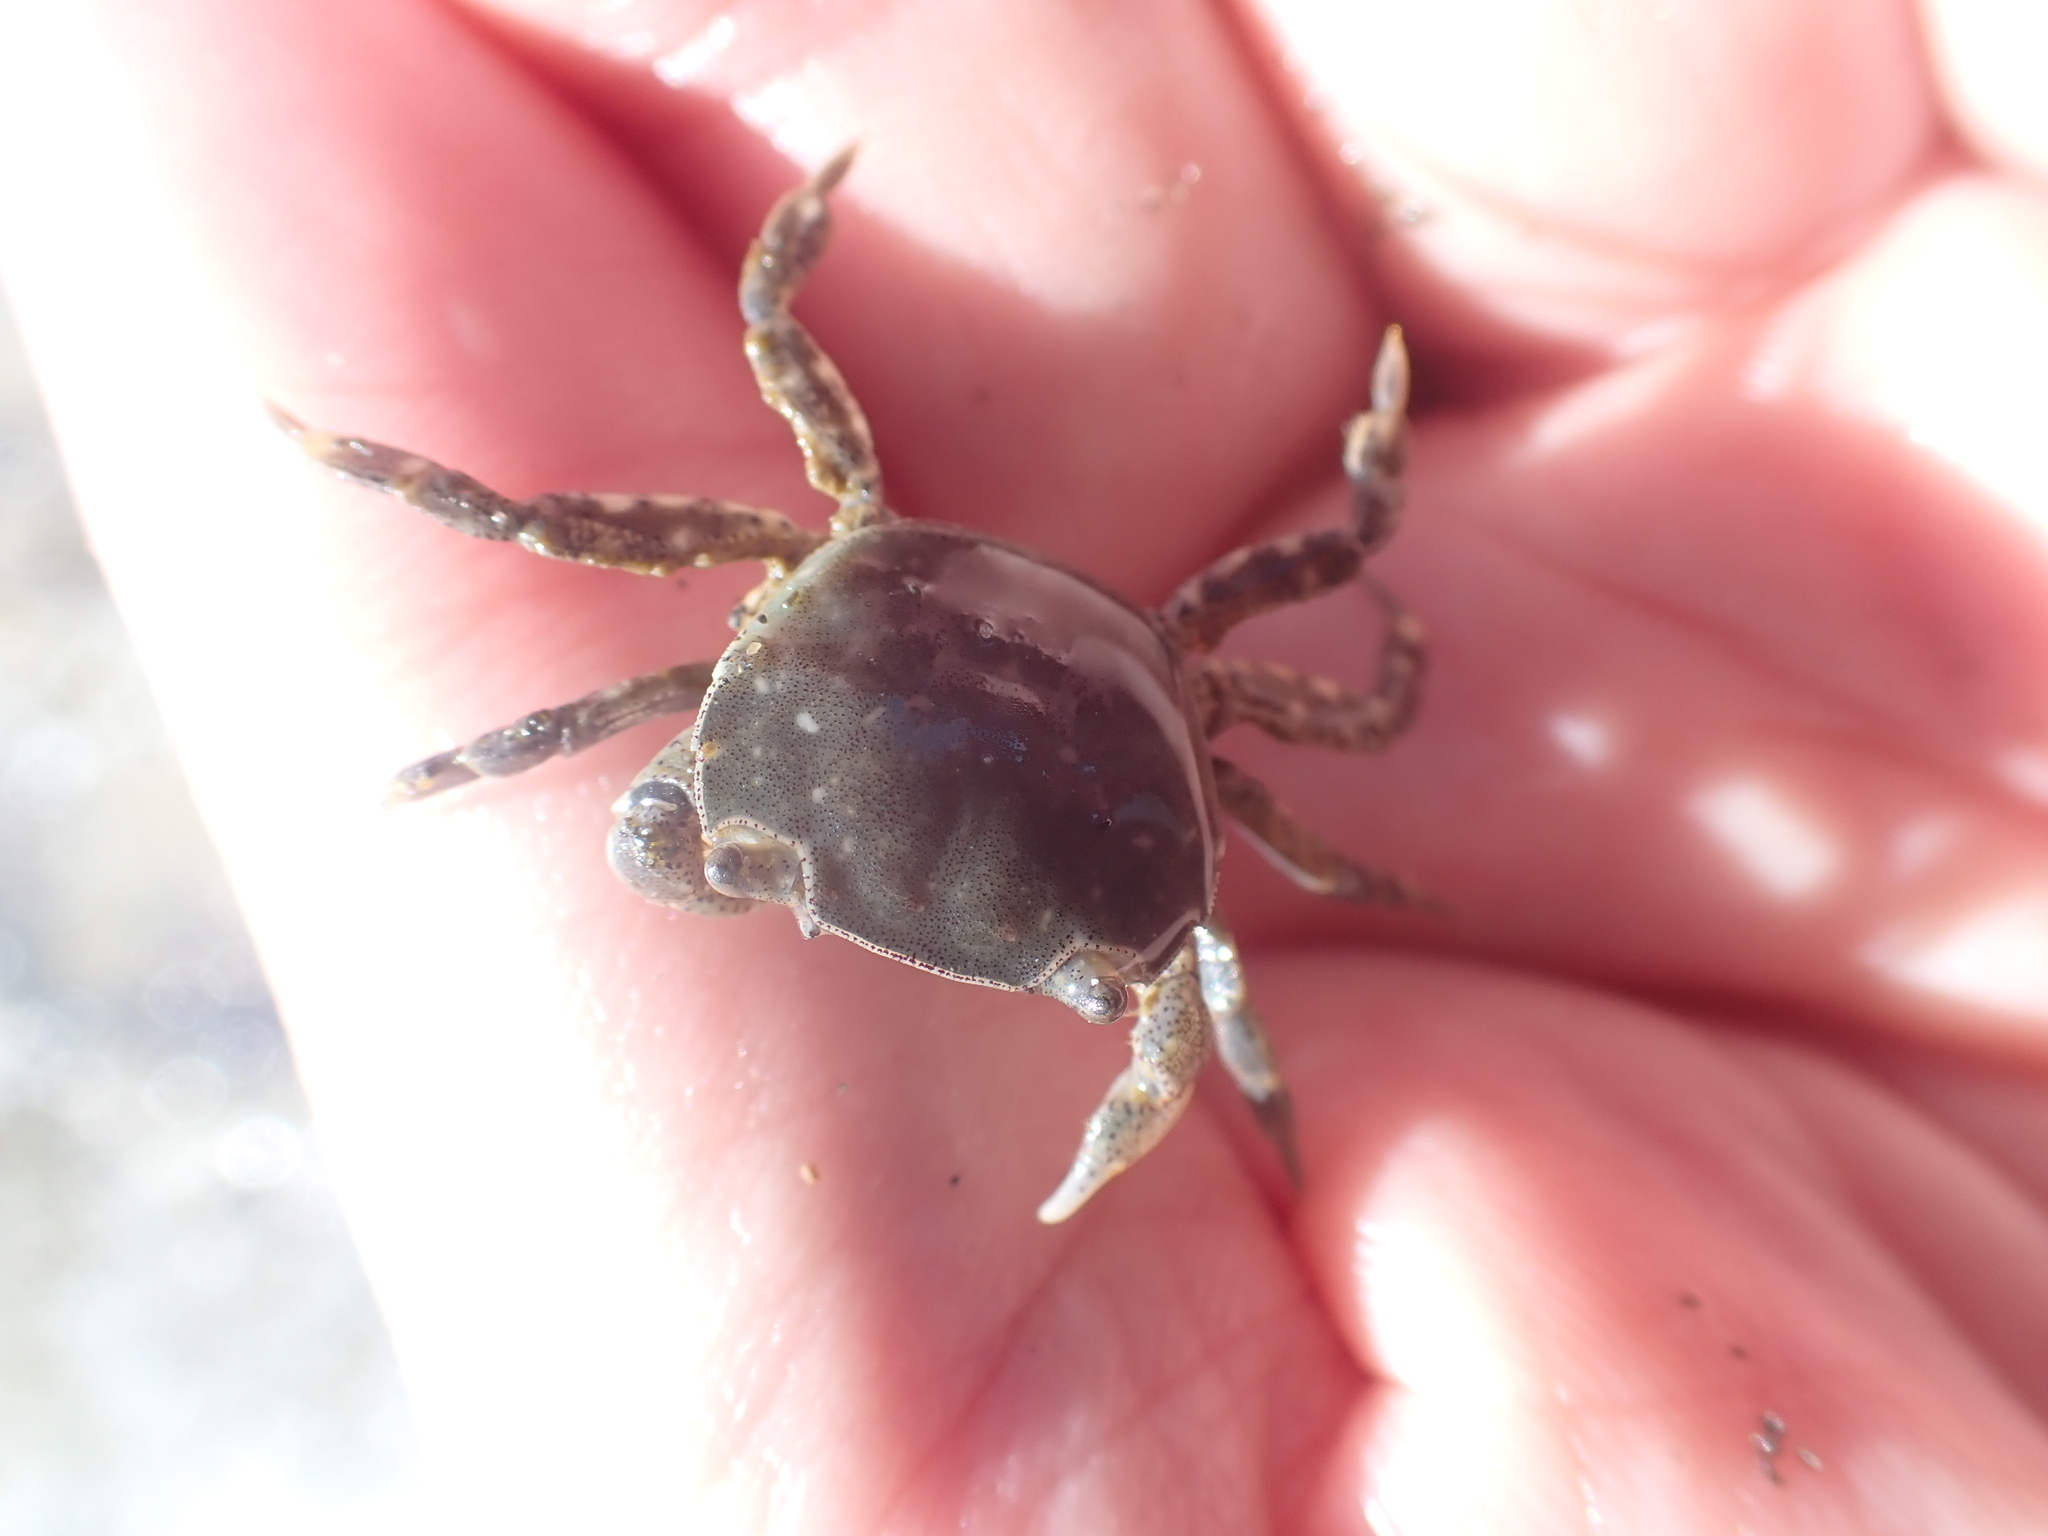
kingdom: Animalia
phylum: Arthropoda
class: Malacostraca
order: Decapoda
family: Varunidae
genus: Hemigrapsus
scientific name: Hemigrapsus crenulatus
